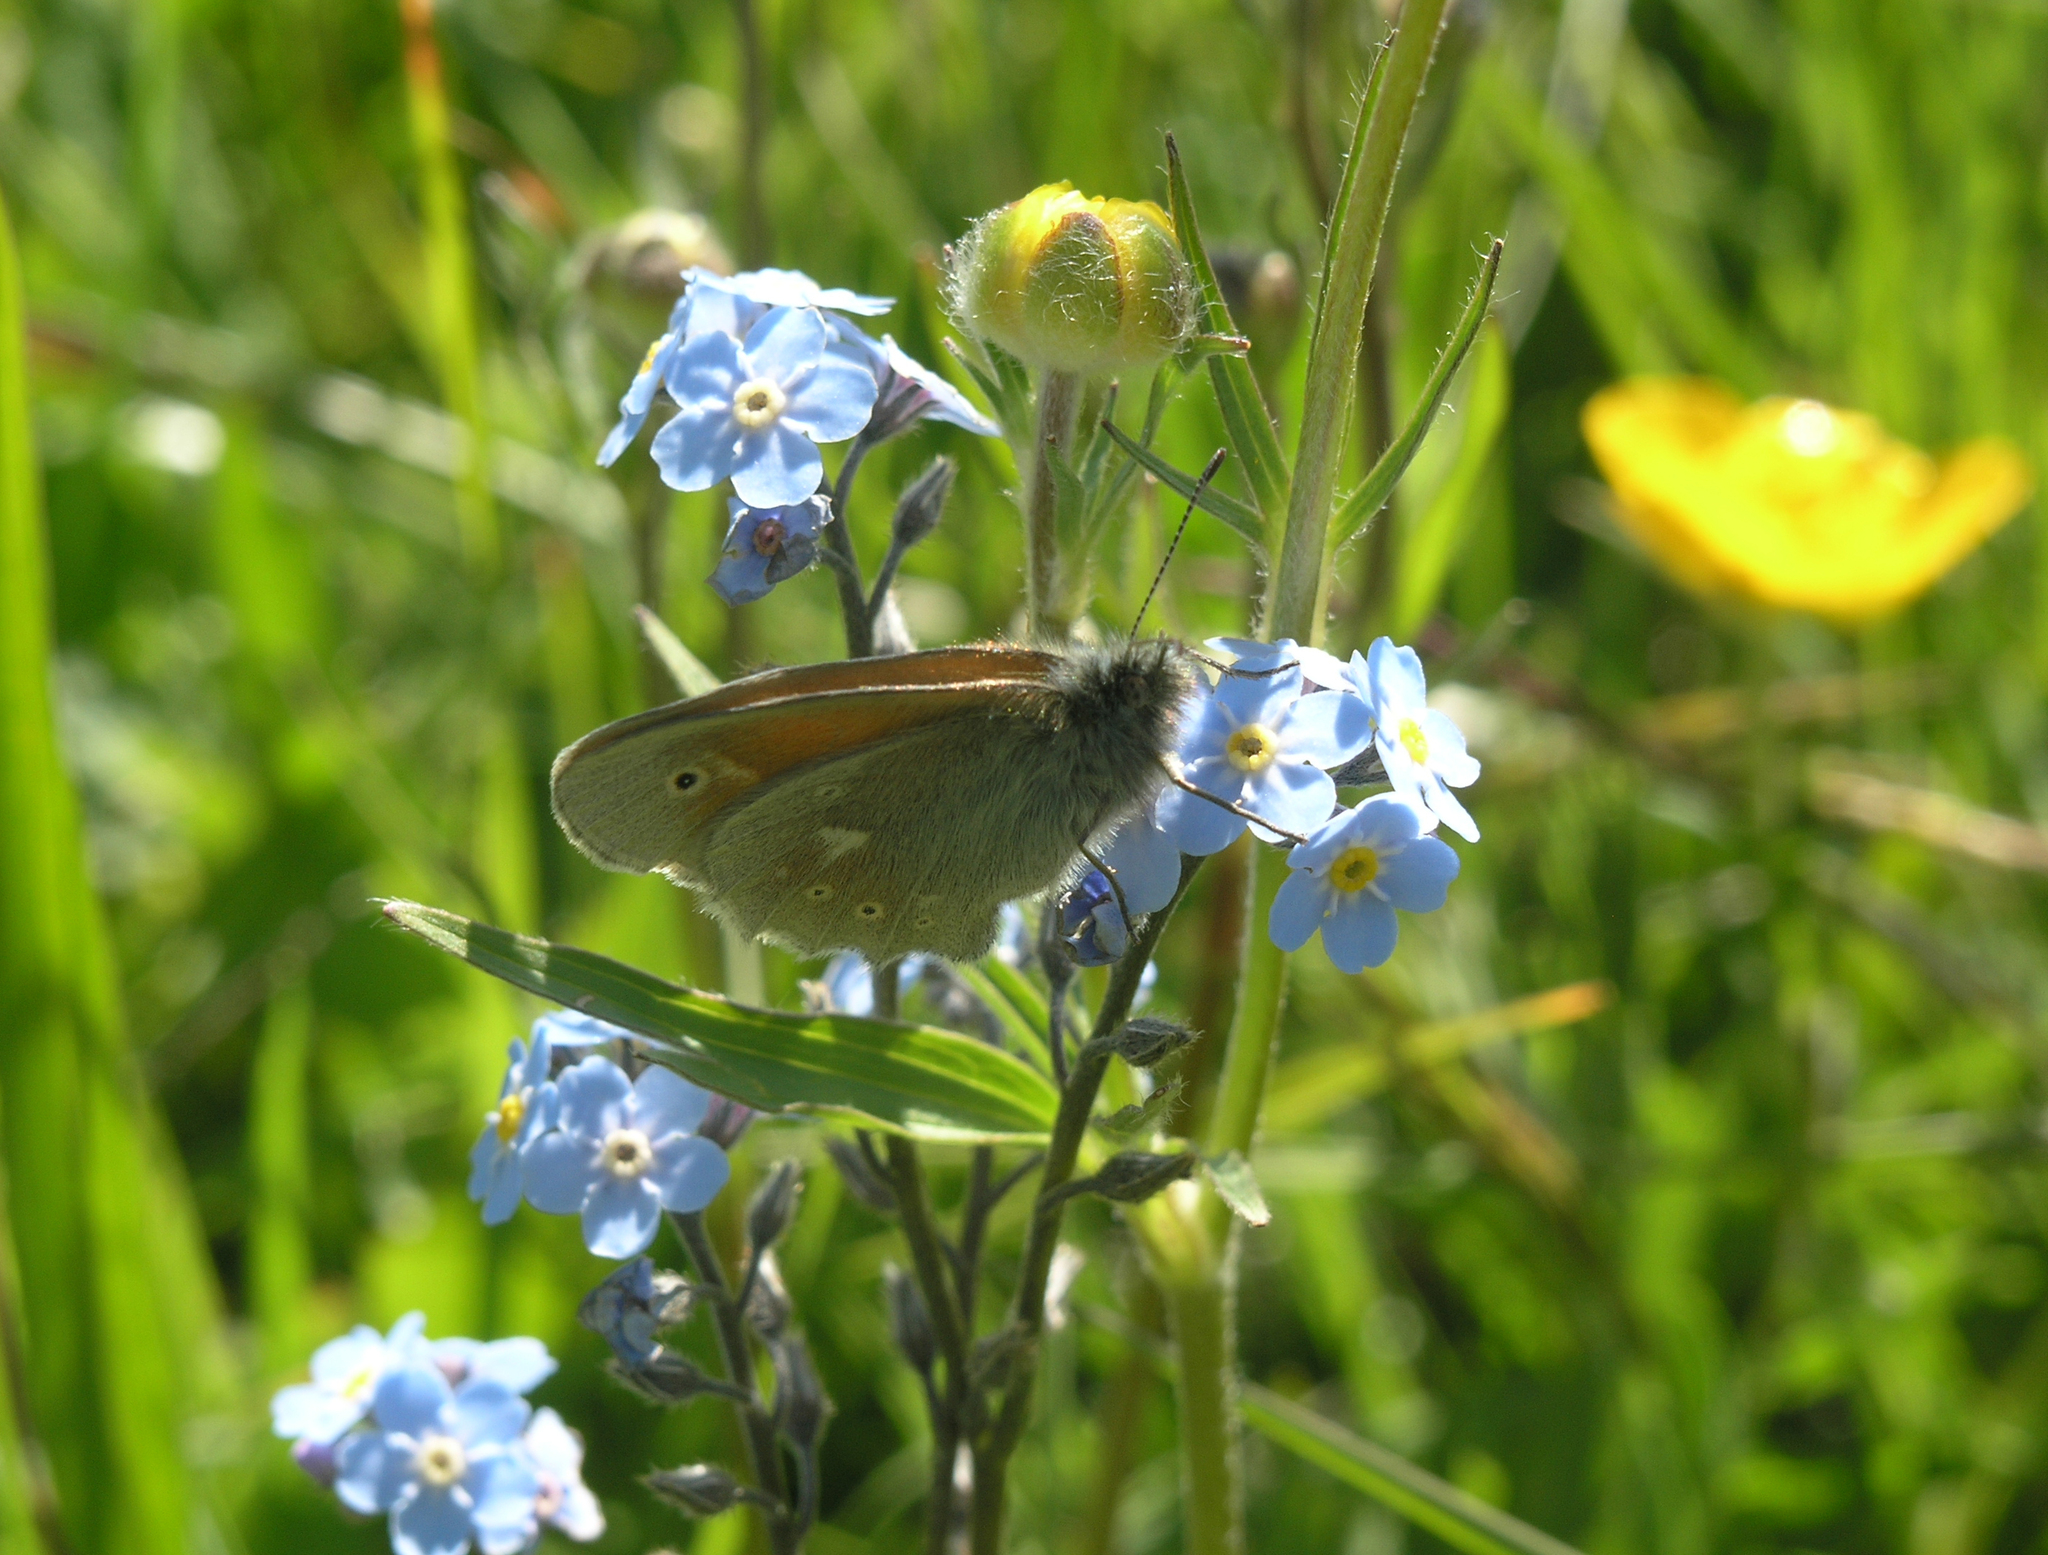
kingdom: Animalia
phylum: Arthropoda
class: Insecta
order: Lepidoptera
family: Nymphalidae
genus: Coenonympha
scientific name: Coenonympha tullia
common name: Large heath
